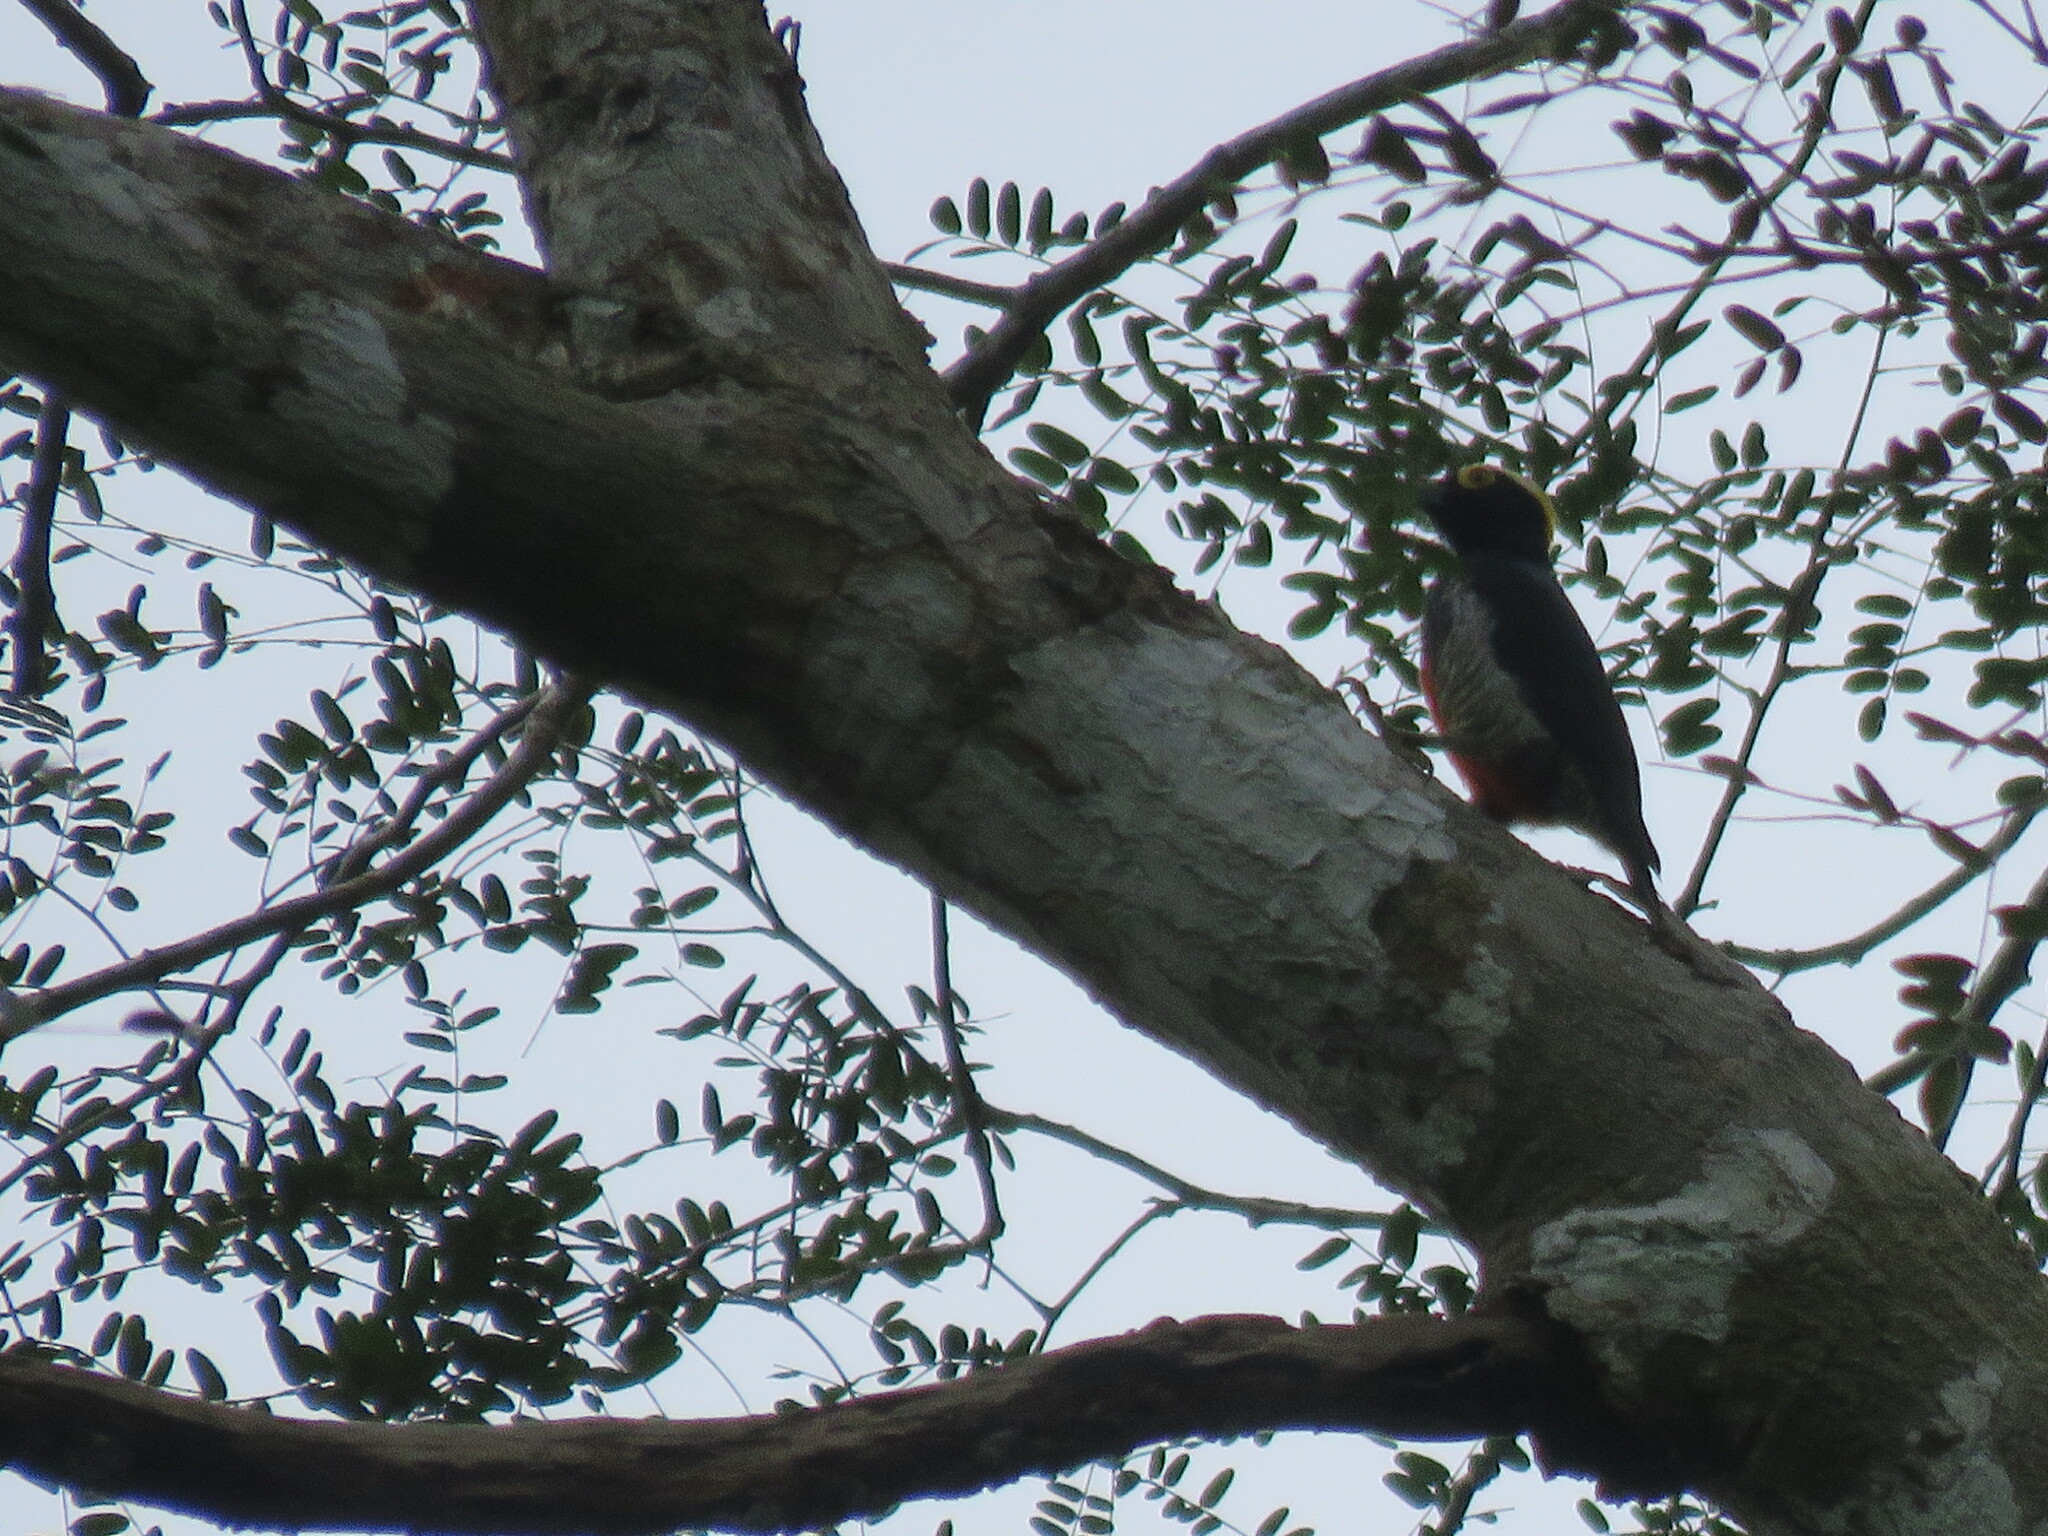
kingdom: Animalia
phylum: Chordata
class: Aves
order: Piciformes
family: Picidae
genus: Melanerpes
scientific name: Melanerpes cruentatus
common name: Yellow-tufted woodpecker
